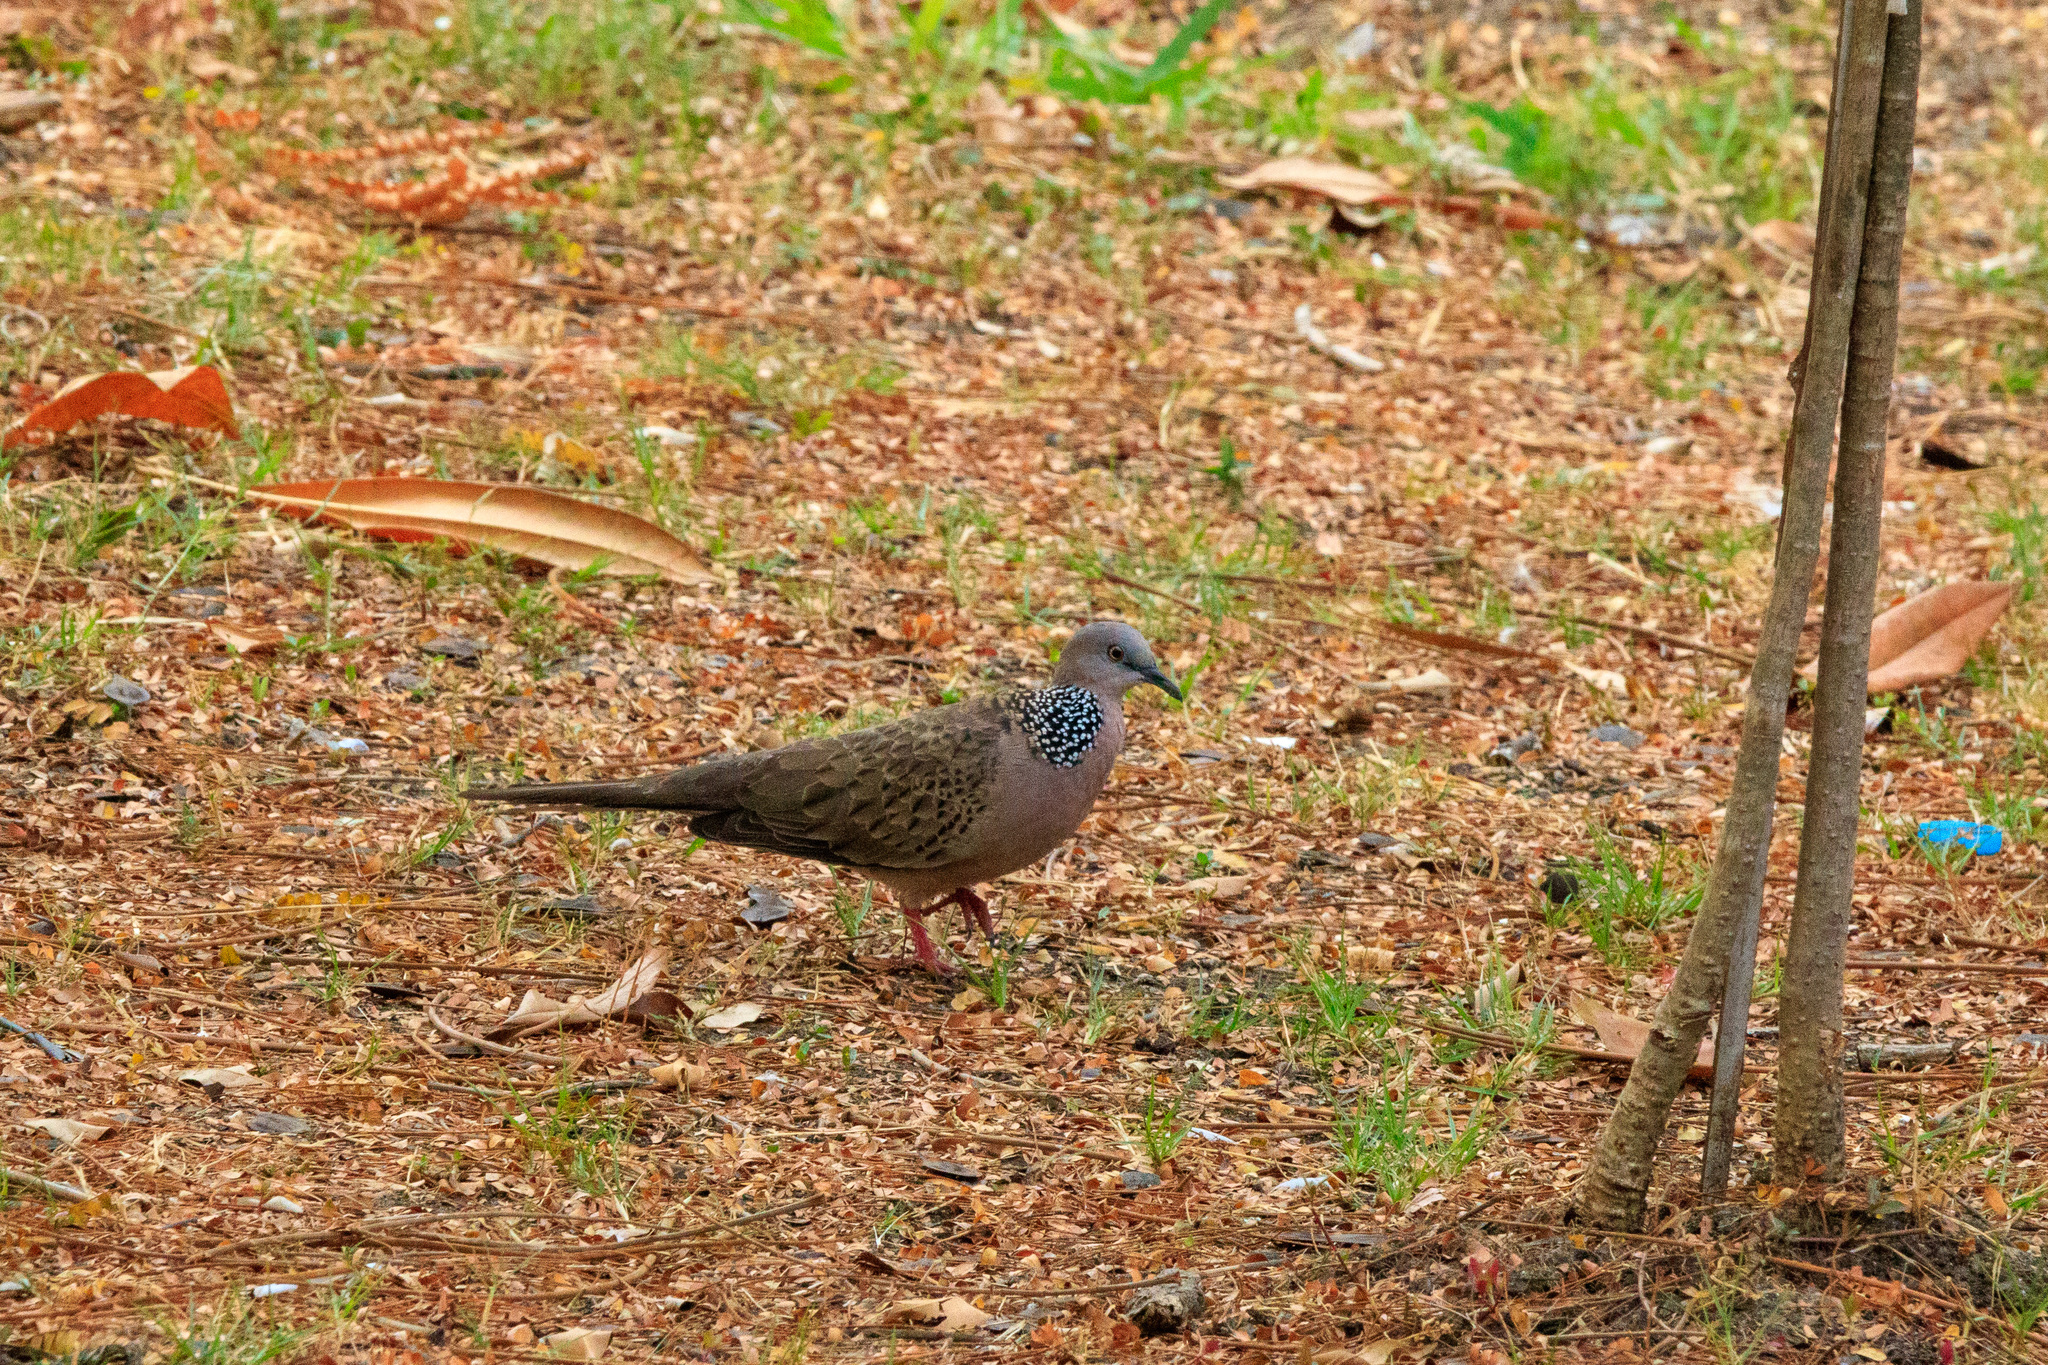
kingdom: Animalia
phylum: Chordata
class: Aves
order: Columbiformes
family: Columbidae
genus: Spilopelia
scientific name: Spilopelia chinensis
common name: Spotted dove
